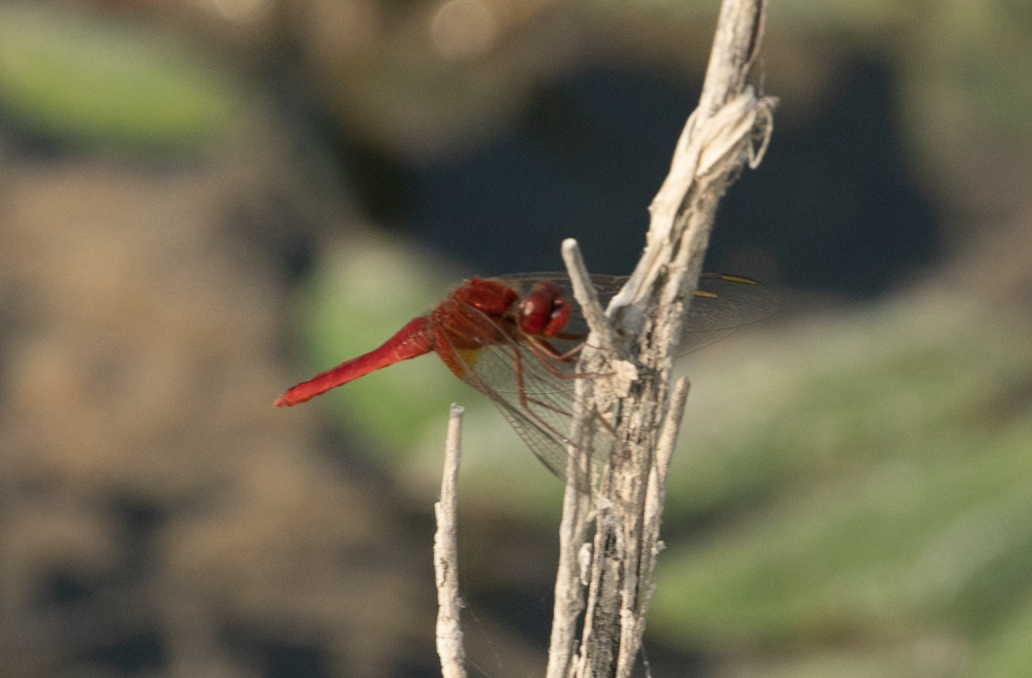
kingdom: Animalia
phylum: Arthropoda
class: Insecta
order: Odonata
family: Libellulidae
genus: Crocothemis
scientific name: Crocothemis erythraea
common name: Scarlet dragonfly
